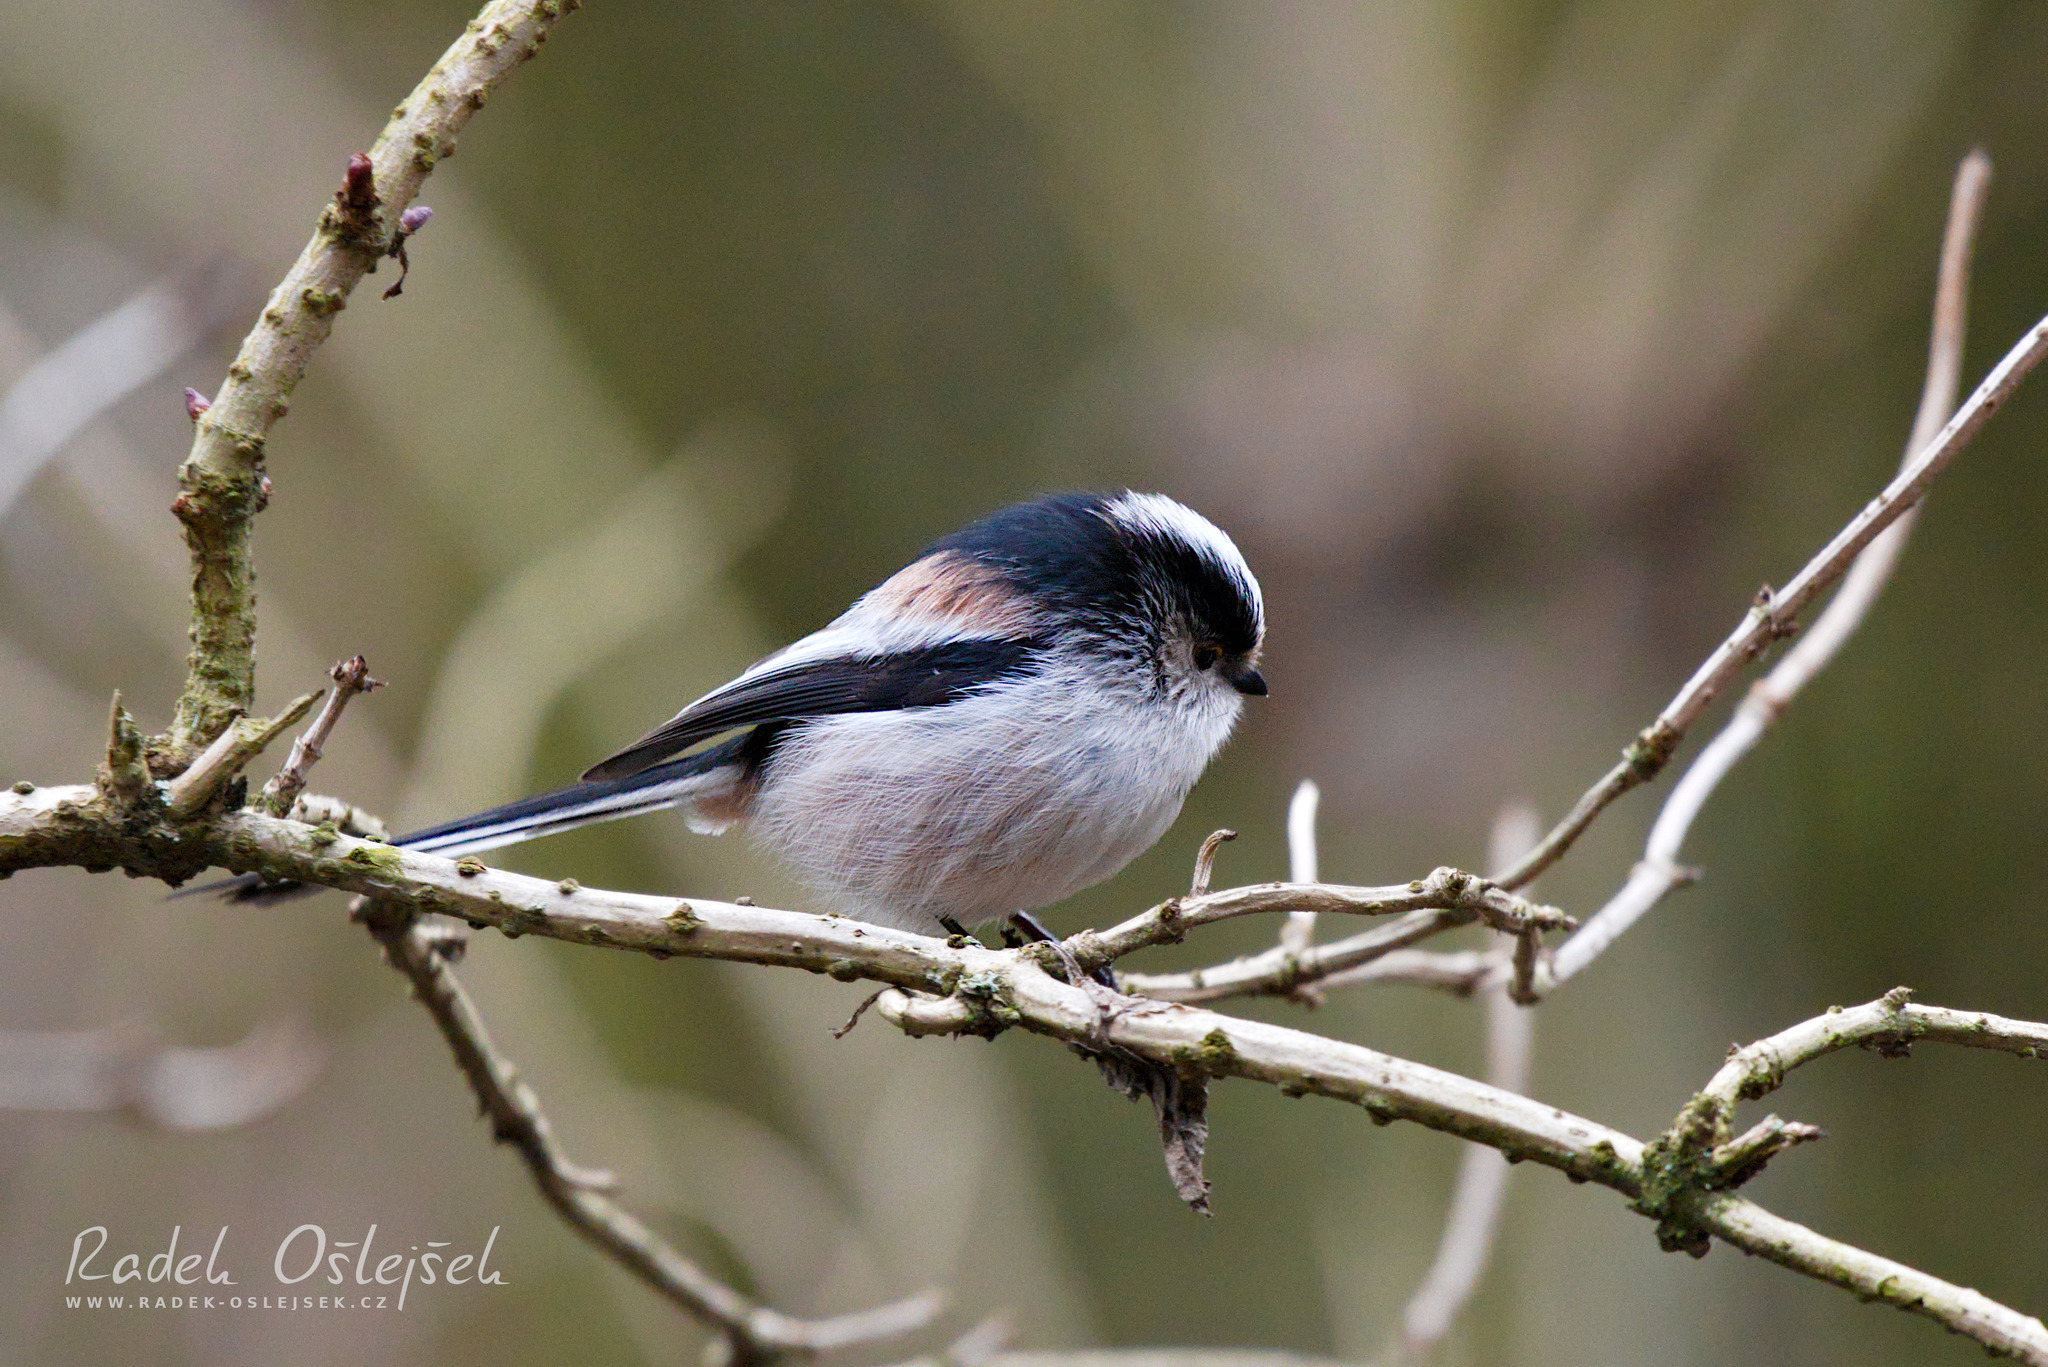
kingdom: Animalia
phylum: Chordata
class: Aves
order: Passeriformes
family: Aegithalidae
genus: Aegithalos
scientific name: Aegithalos caudatus
